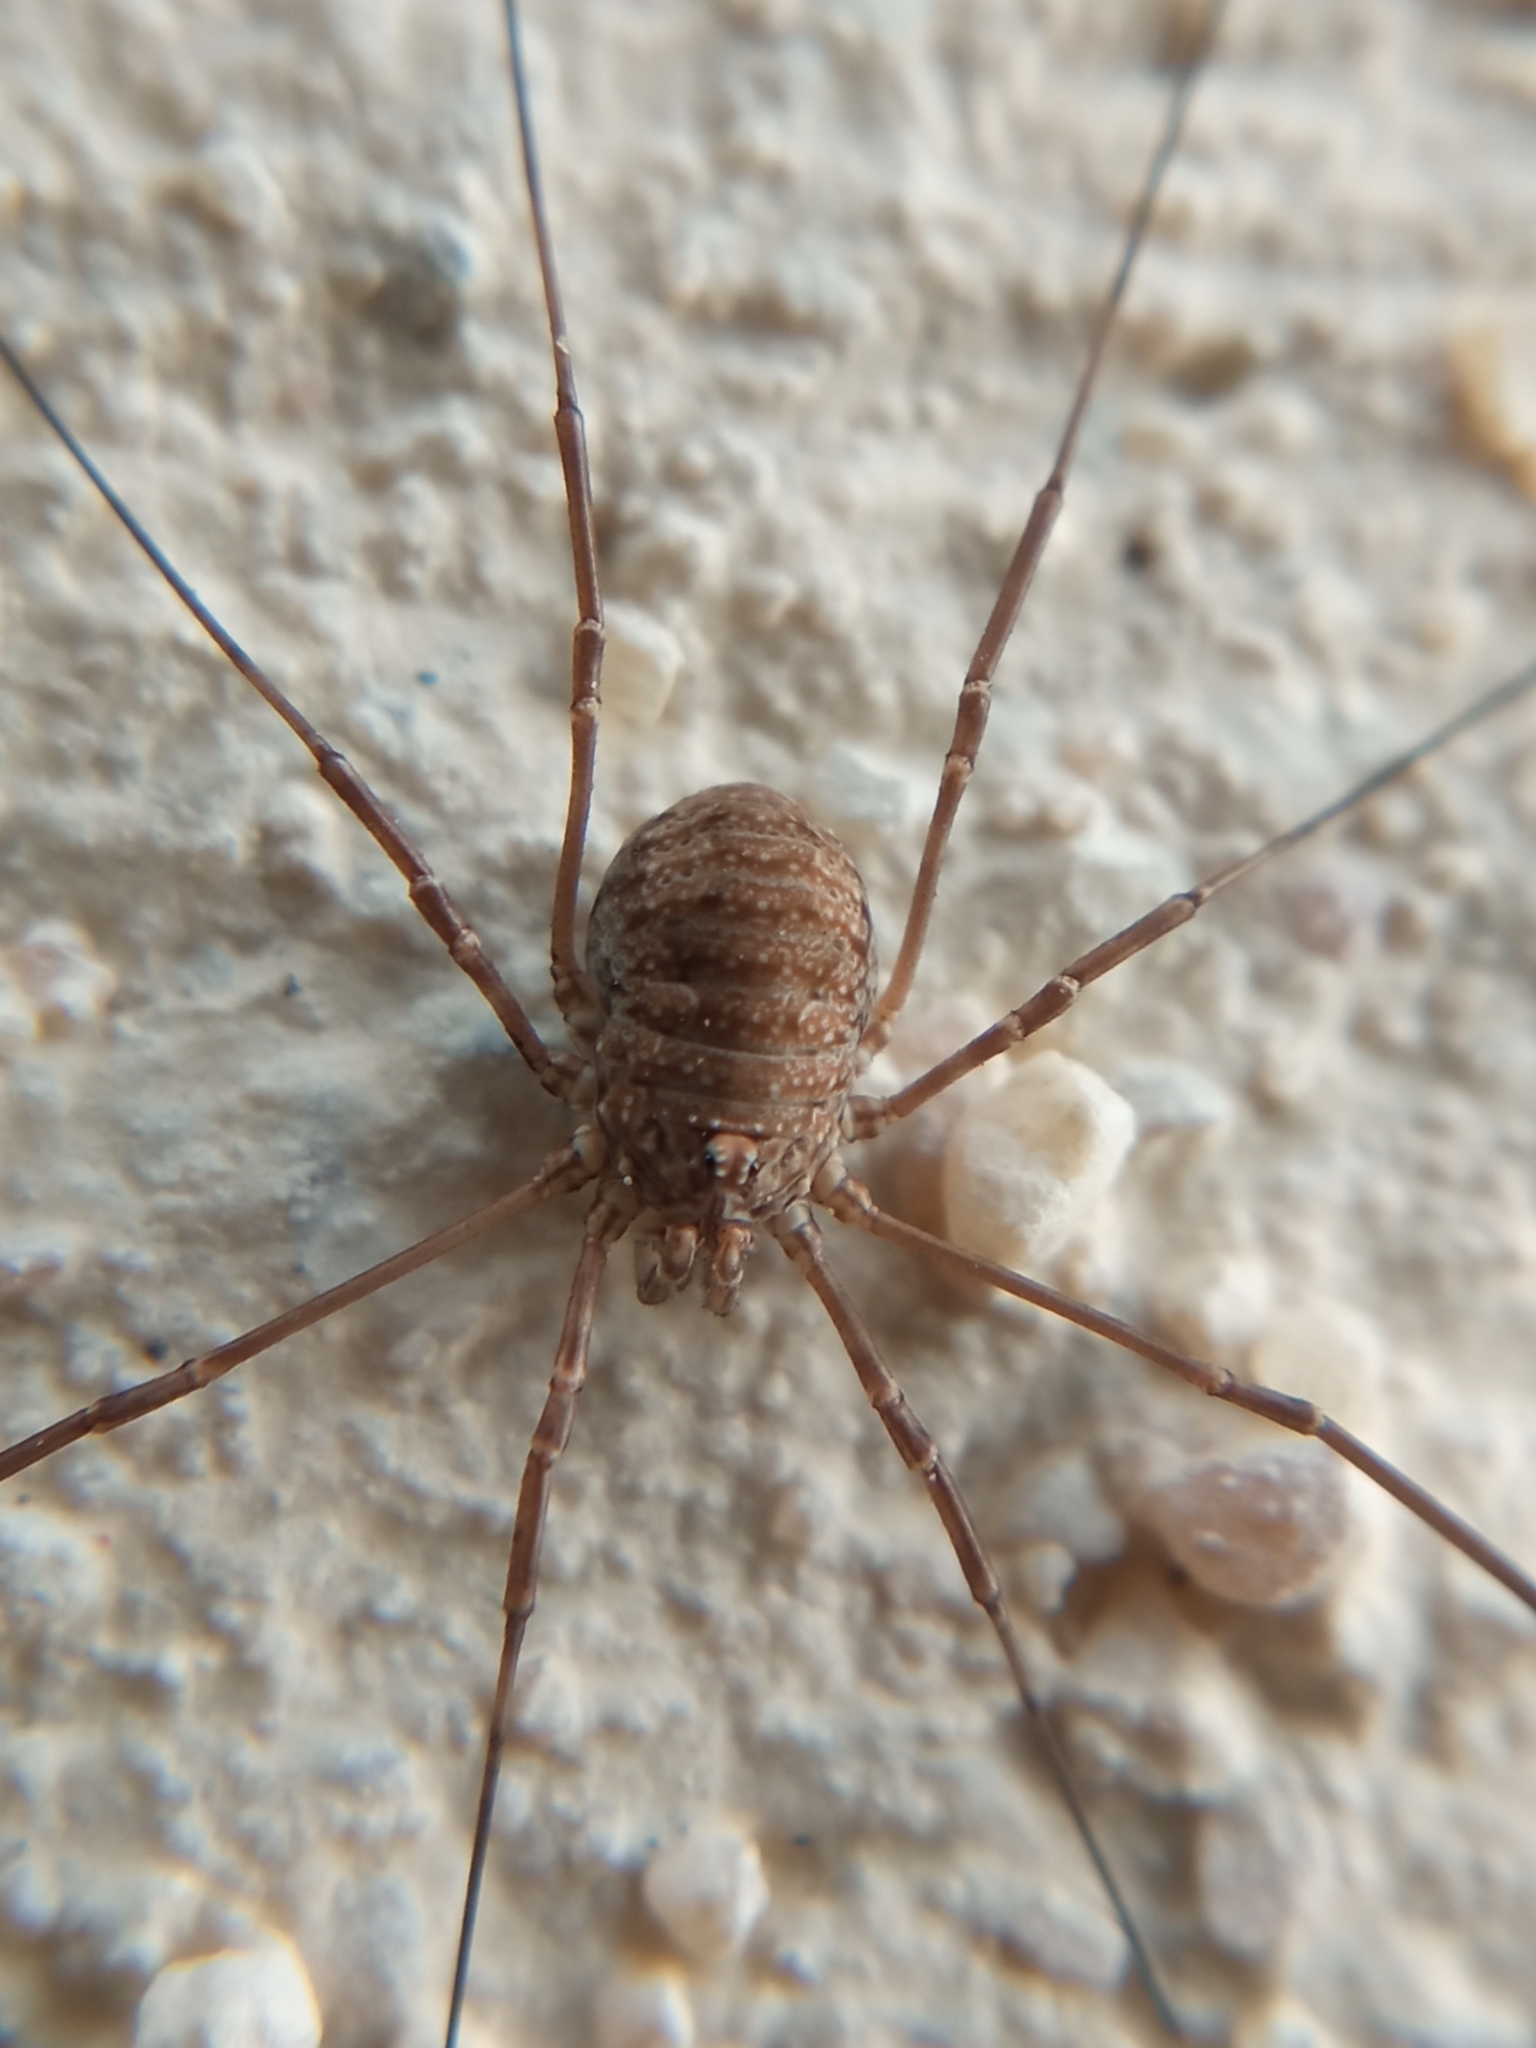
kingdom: Animalia
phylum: Arthropoda
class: Arachnida
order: Opiliones
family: Phalangiidae
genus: Phalangium
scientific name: Phalangium opilio
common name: Daddy longleg
